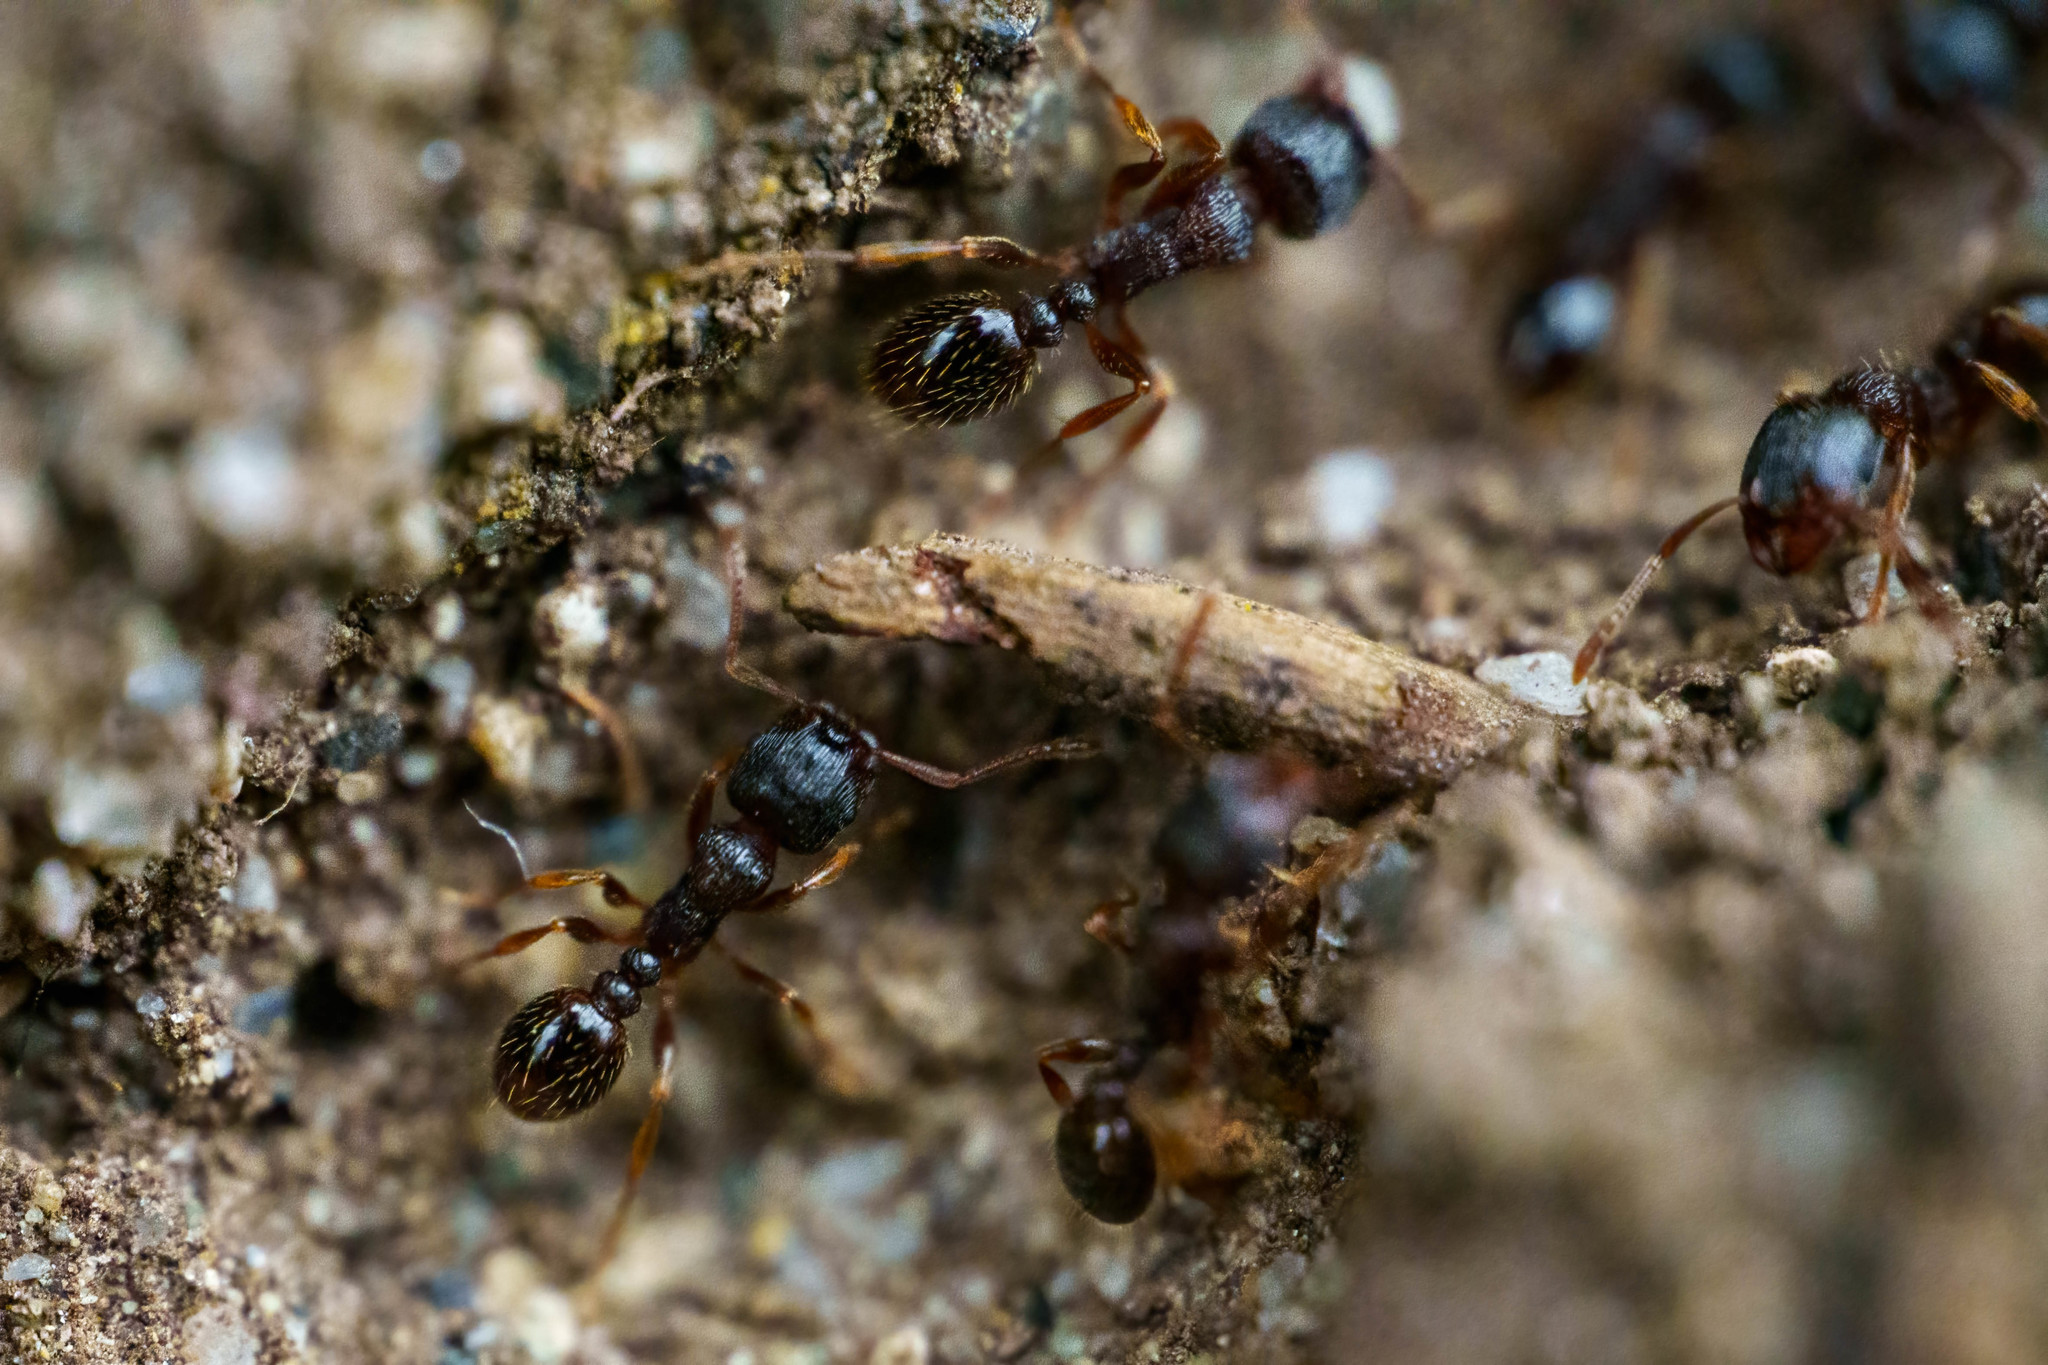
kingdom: Animalia
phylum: Arthropoda
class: Insecta
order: Hymenoptera
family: Formicidae
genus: Tetramorium
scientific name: Tetramorium immigrans
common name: Pavement ant
